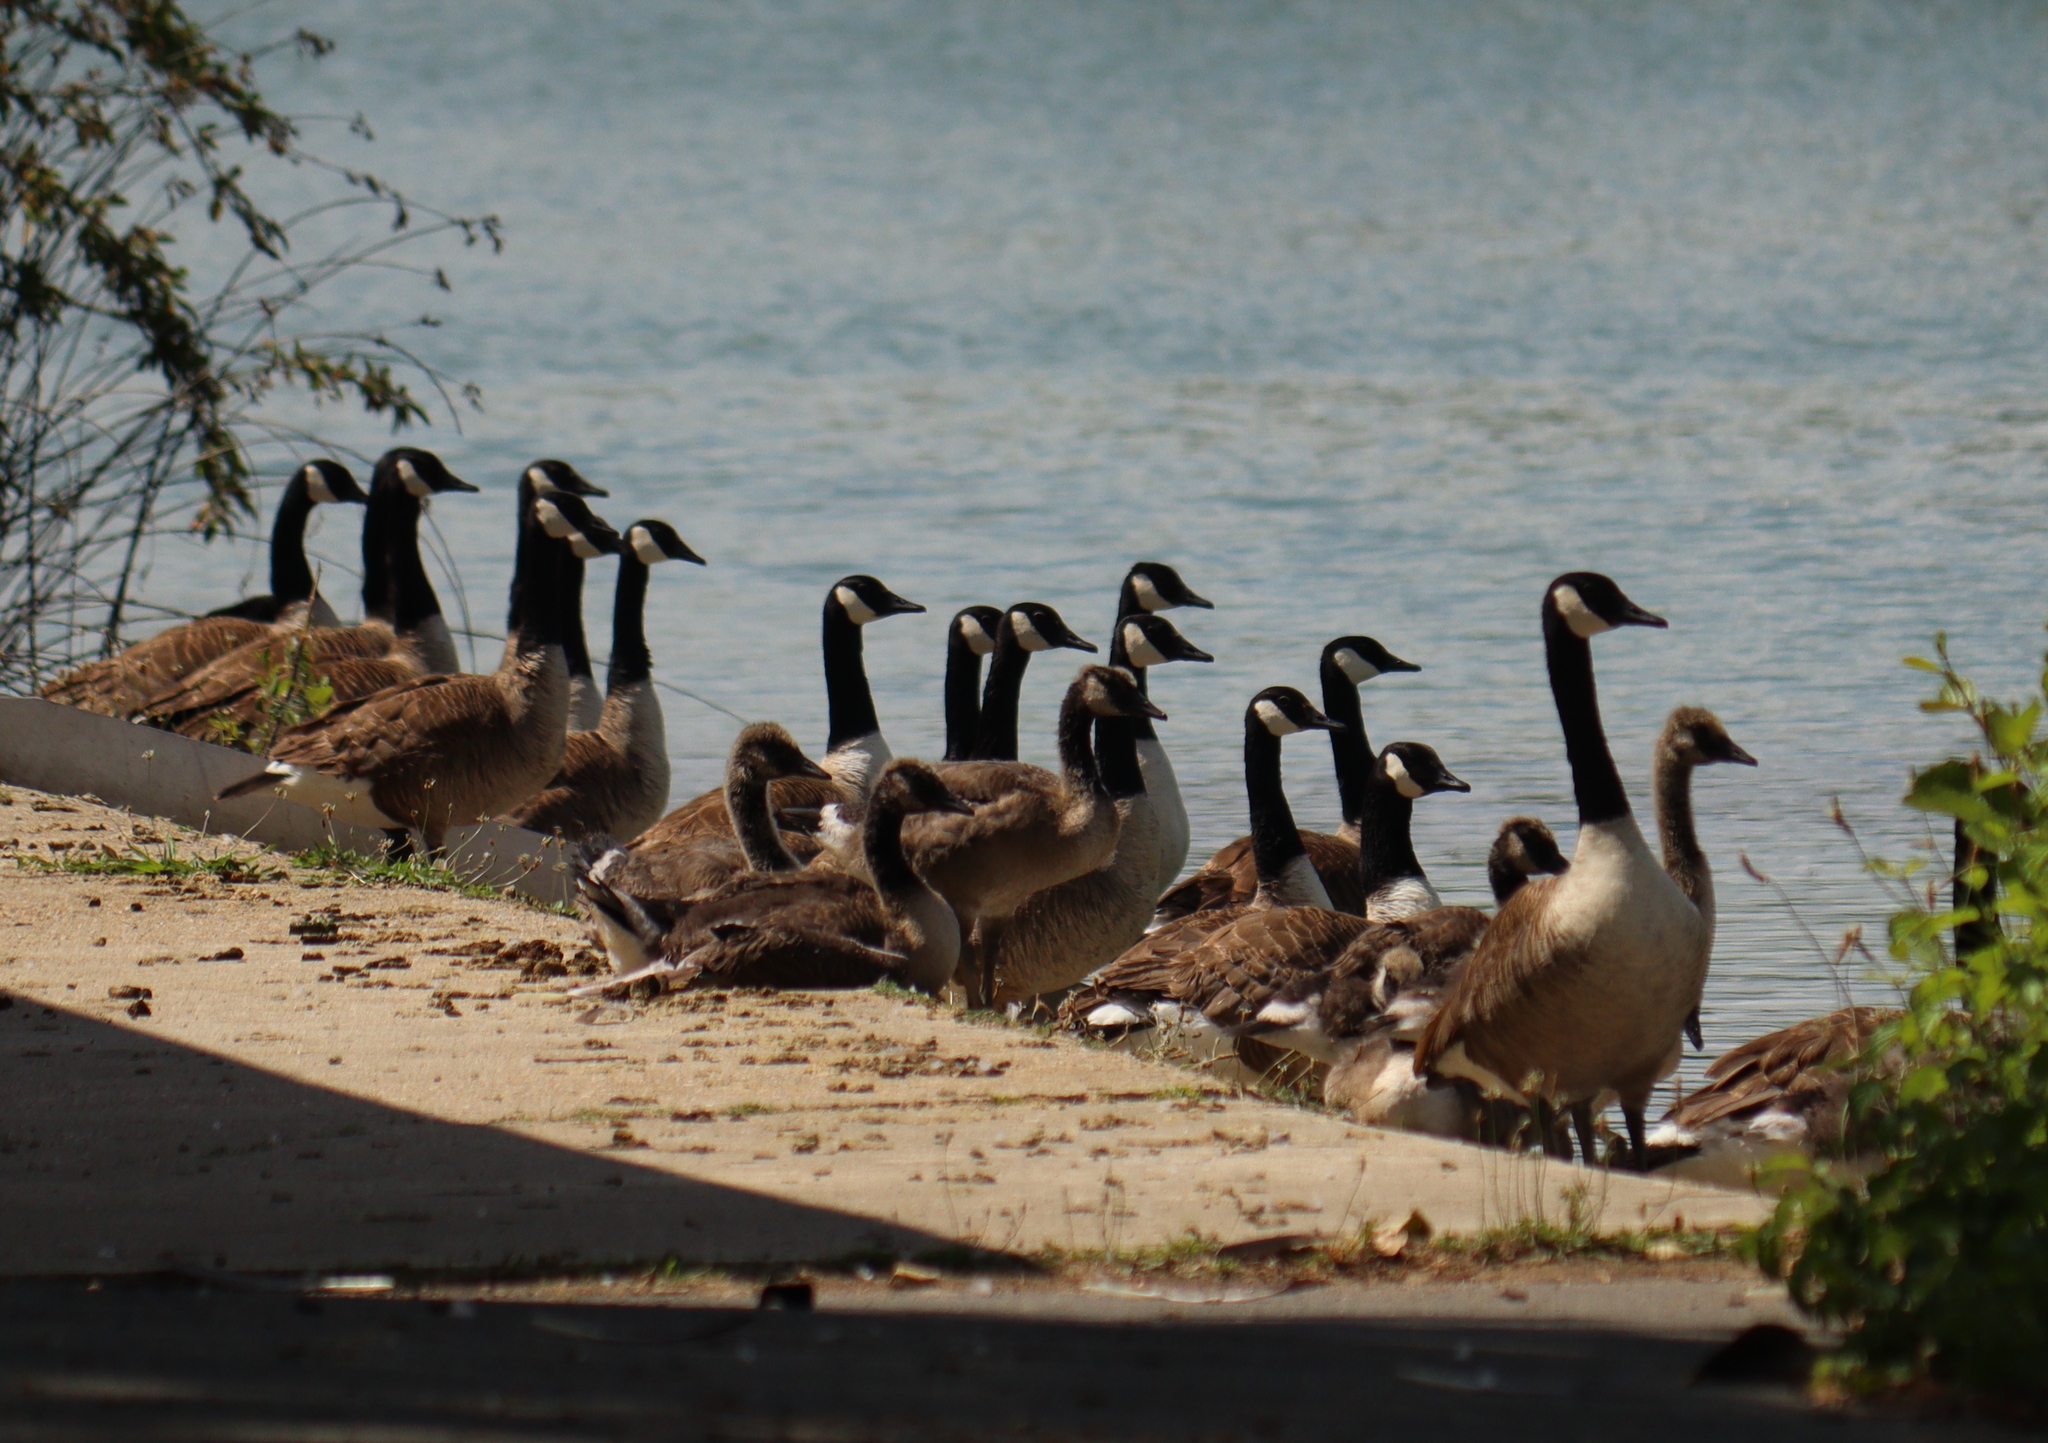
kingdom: Animalia
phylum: Chordata
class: Aves
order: Anseriformes
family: Anatidae
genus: Branta
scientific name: Branta canadensis
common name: Canada goose
